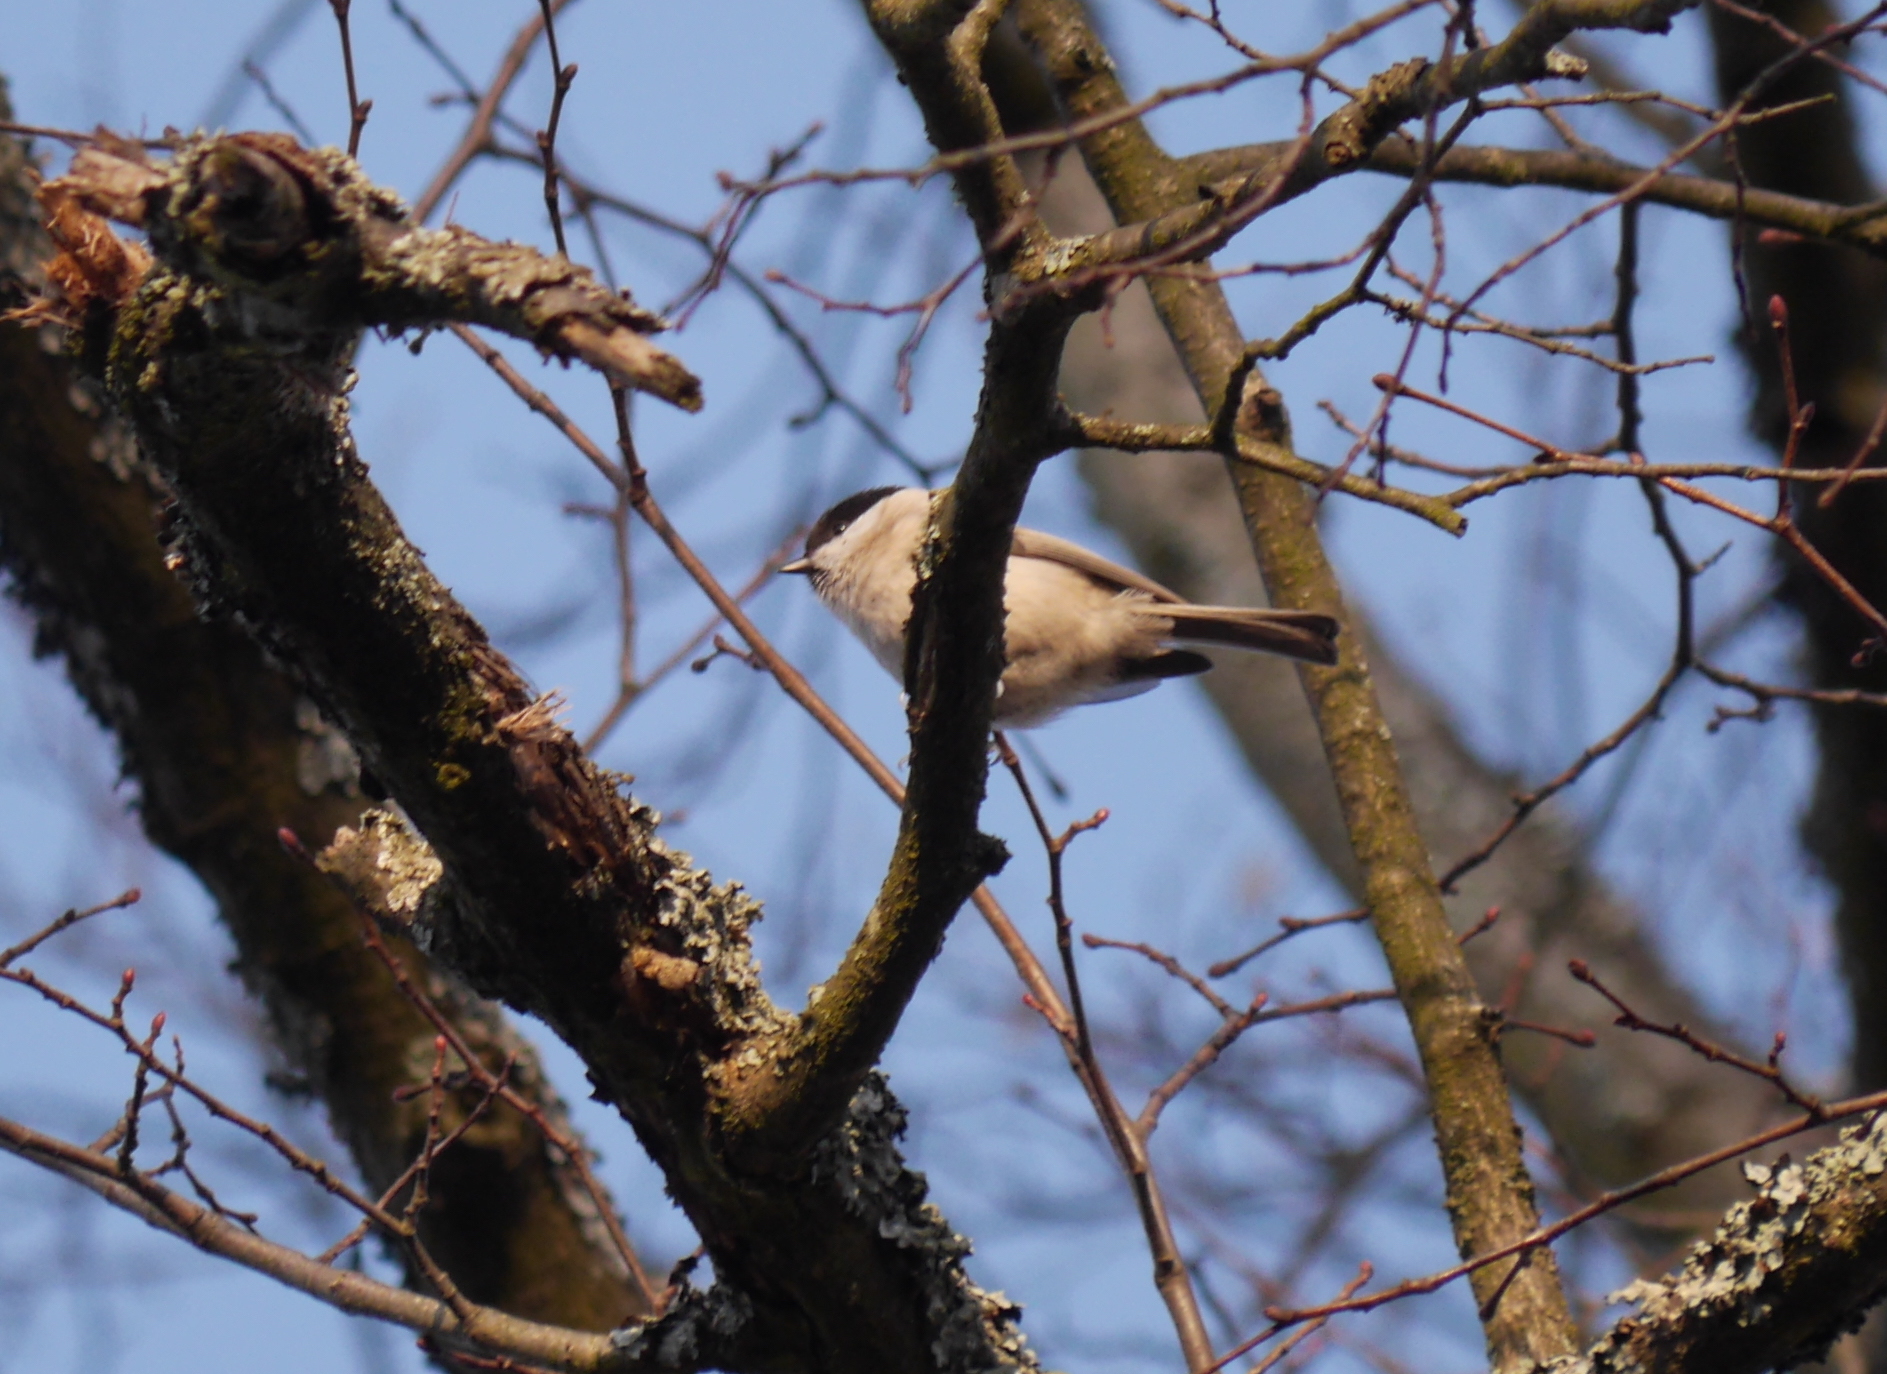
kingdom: Animalia
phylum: Chordata
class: Aves
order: Passeriformes
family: Paridae
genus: Poecile
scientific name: Poecile palustris
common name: Marsh tit
